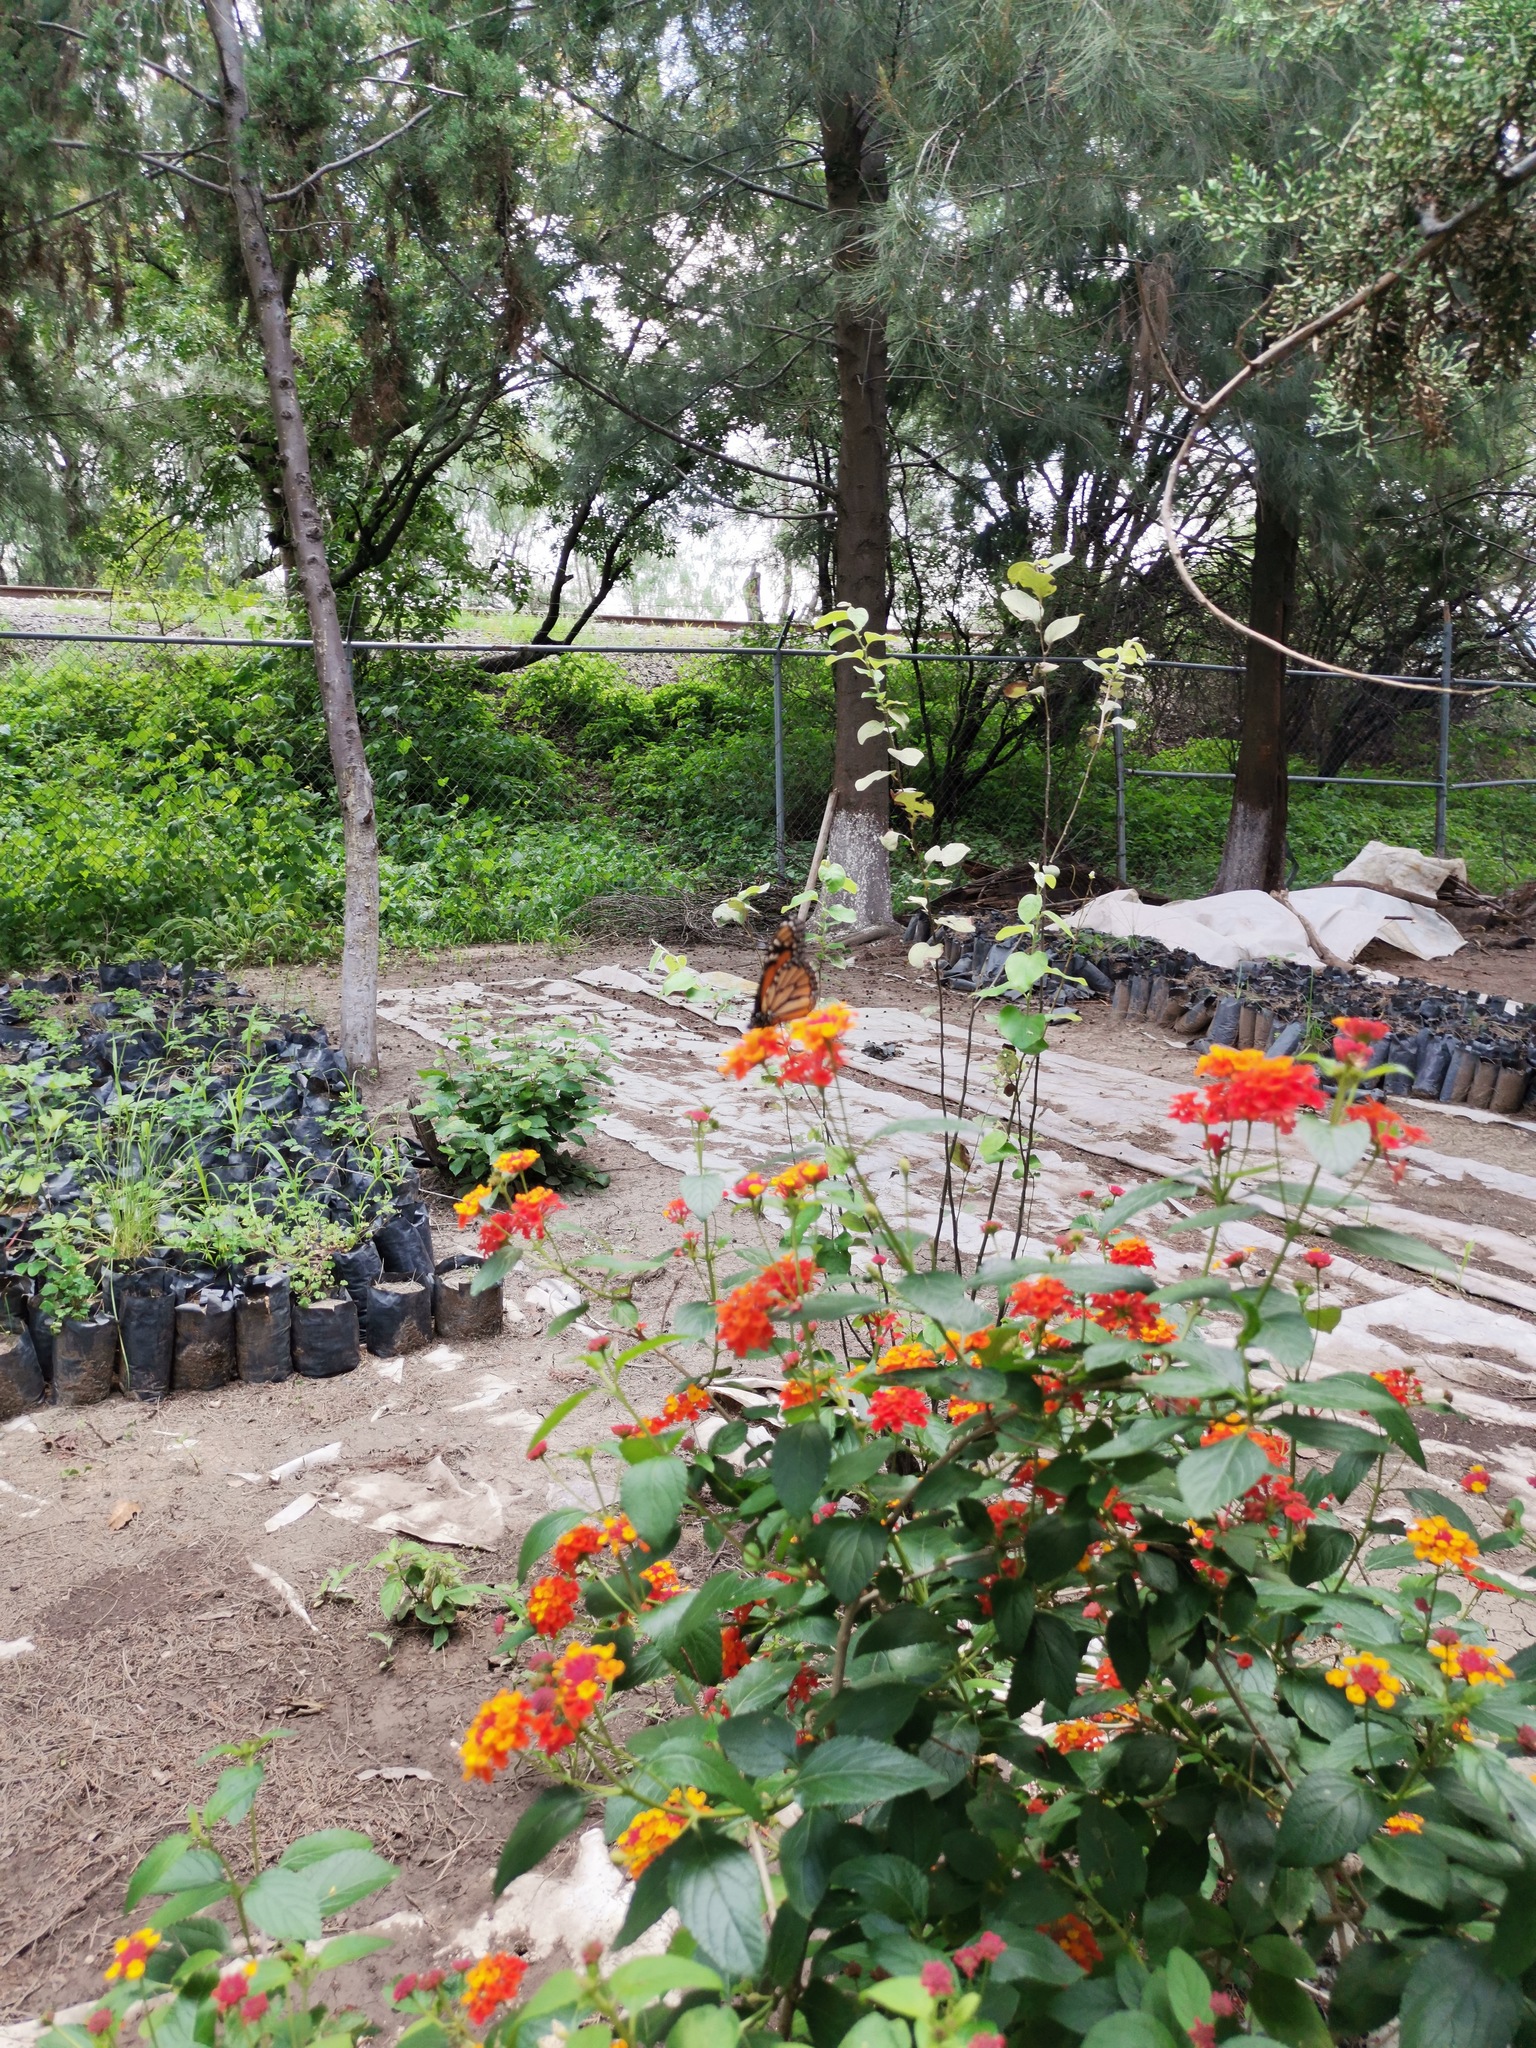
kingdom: Animalia
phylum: Arthropoda
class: Insecta
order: Lepidoptera
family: Nymphalidae
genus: Danaus
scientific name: Danaus plexippus
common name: Monarch
